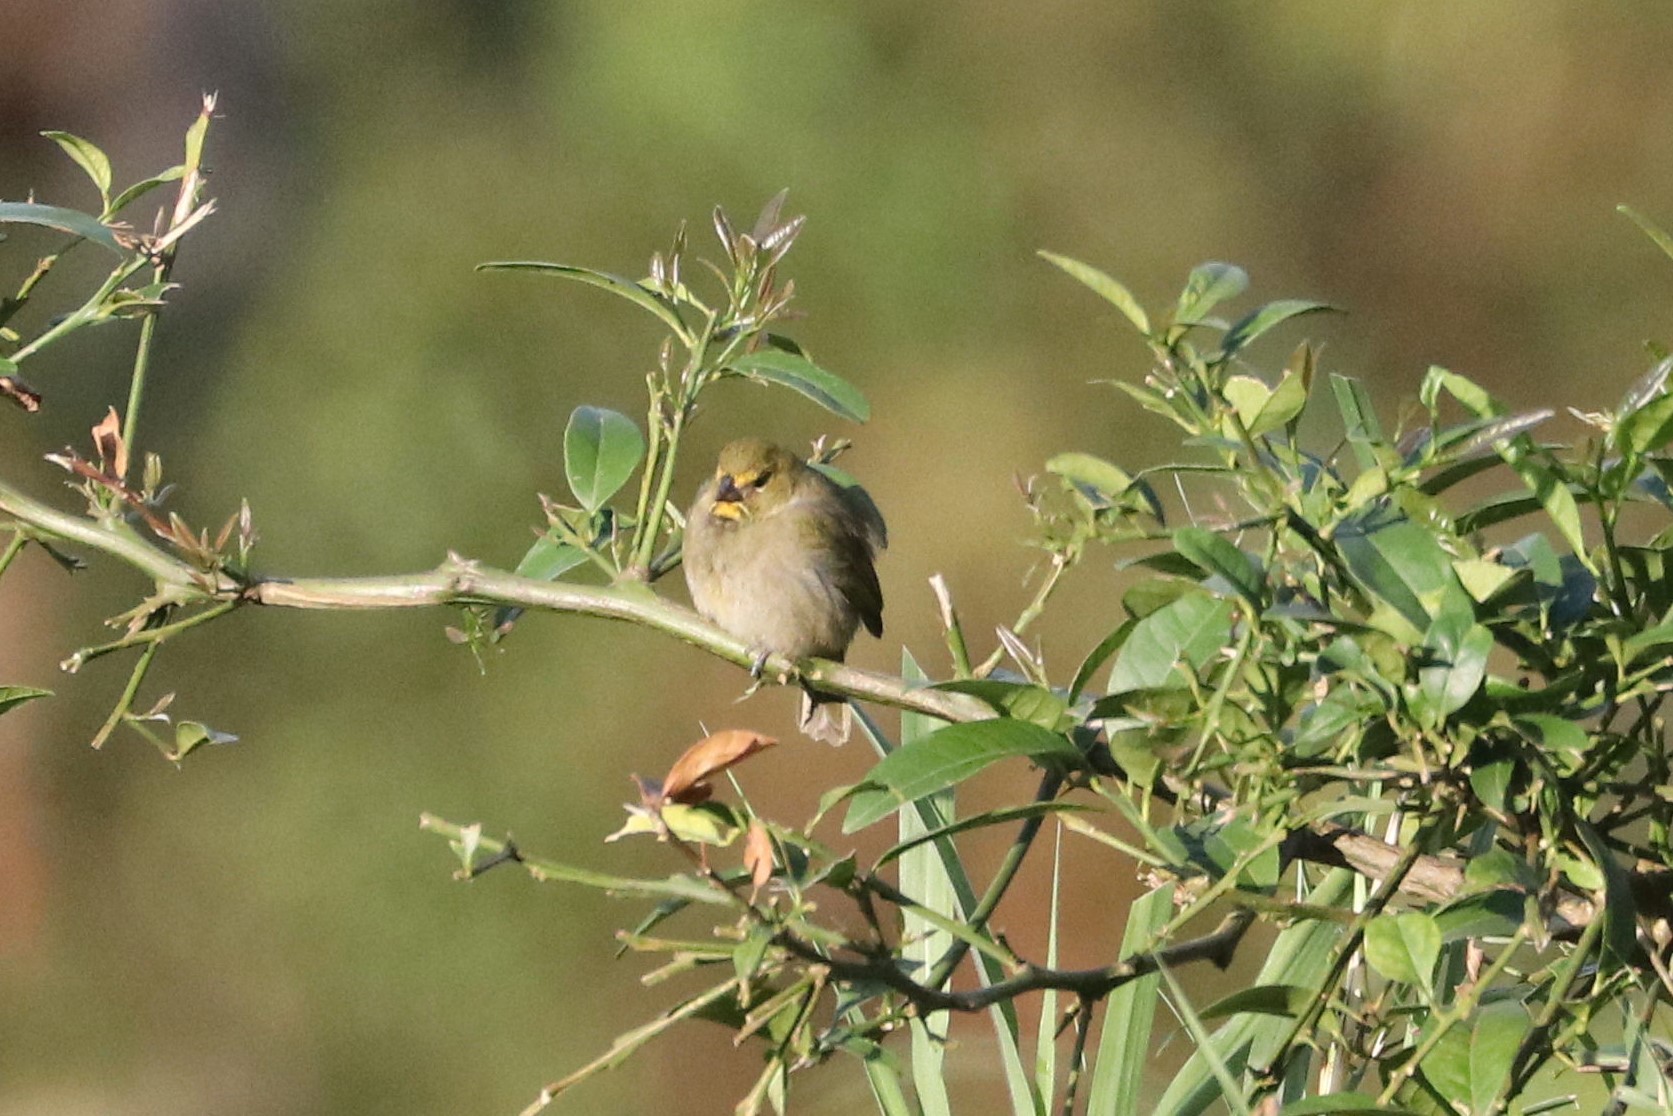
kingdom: Animalia
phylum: Chordata
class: Aves
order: Passeriformes
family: Thraupidae
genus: Tiaris
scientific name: Tiaris olivaceus
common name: Yellow-faced grassquit
